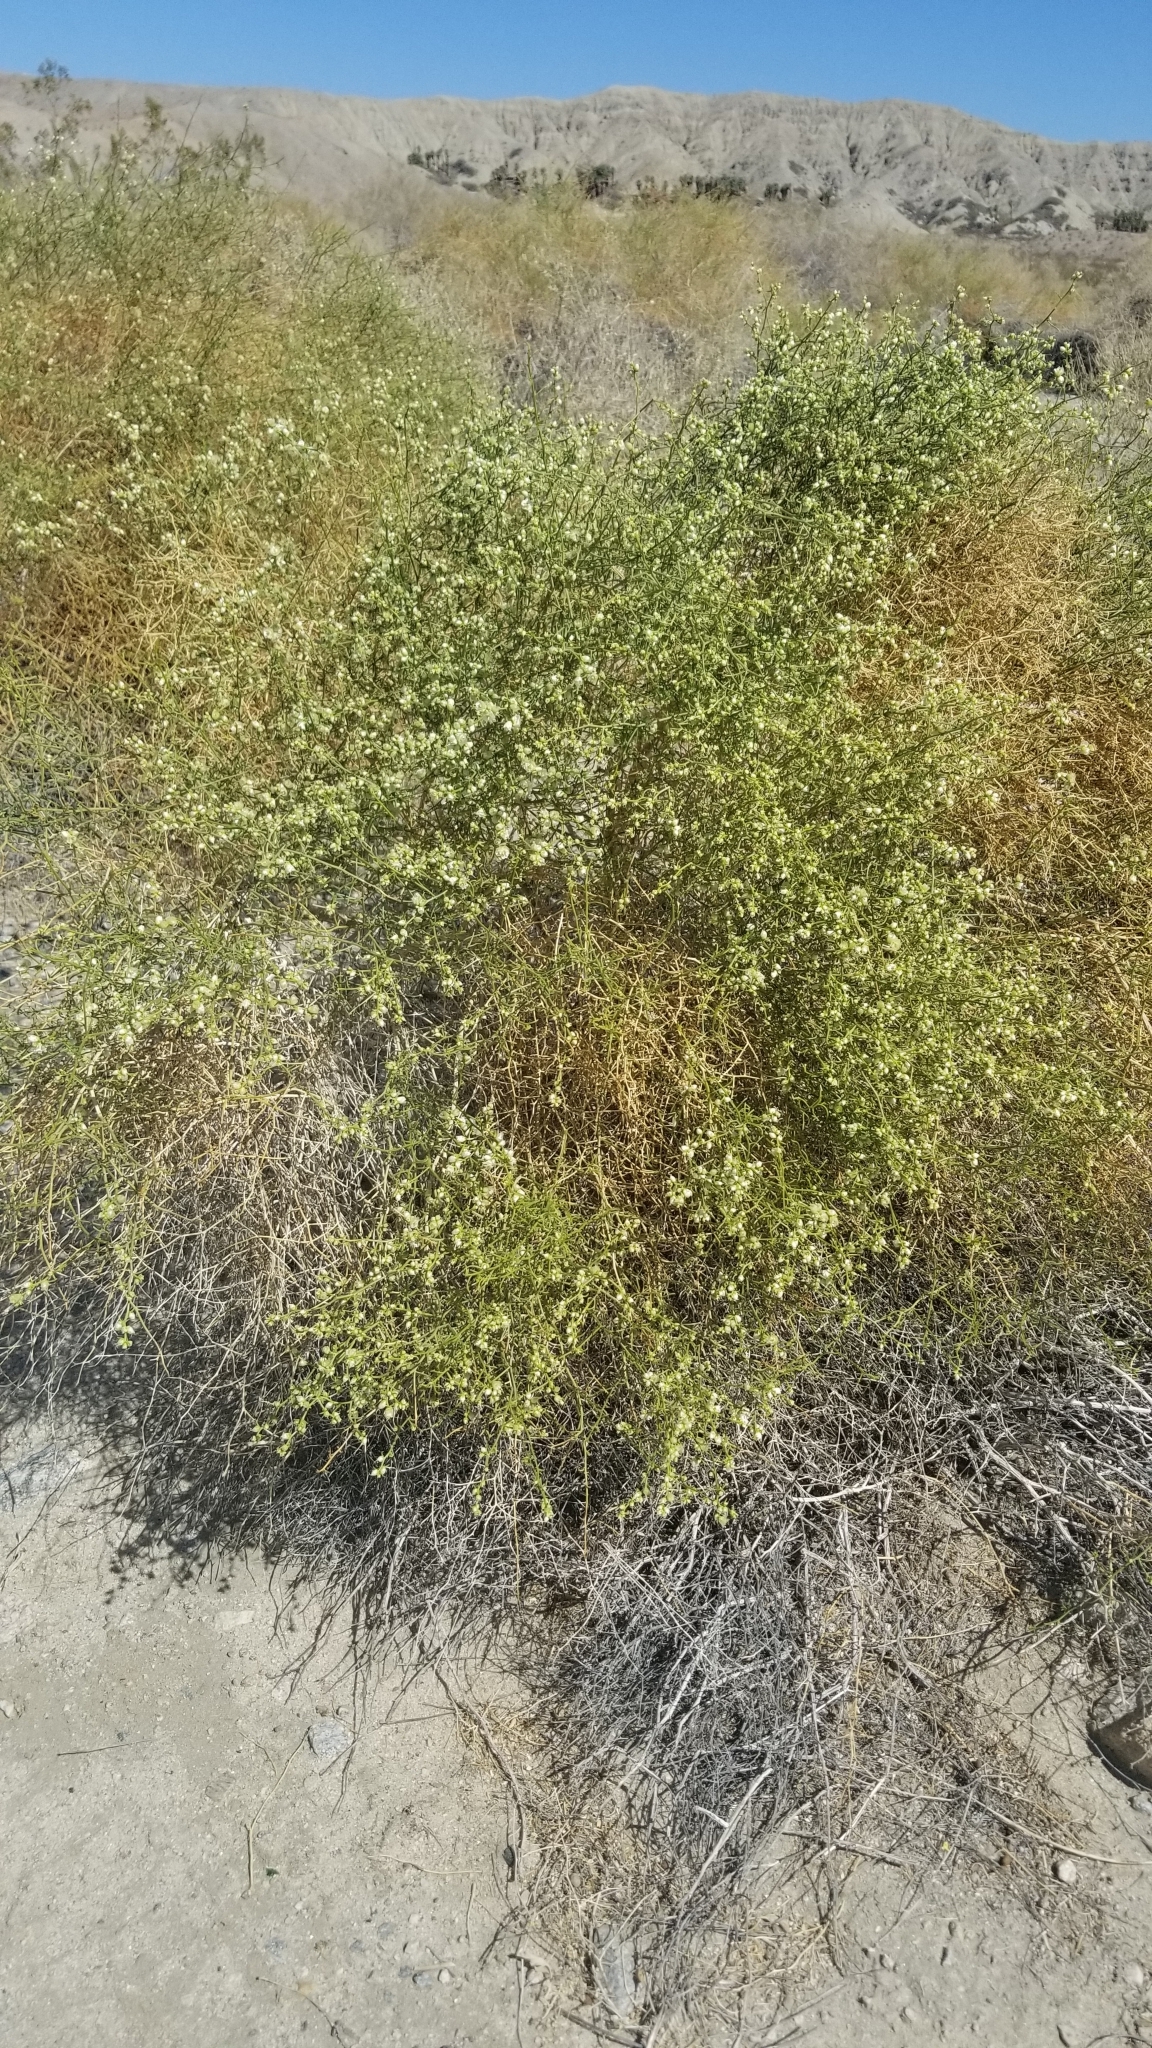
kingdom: Plantae
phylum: Tracheophyta
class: Magnoliopsida
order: Asterales
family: Asteraceae
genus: Ambrosia
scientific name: Ambrosia salsola
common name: Burrobrush
